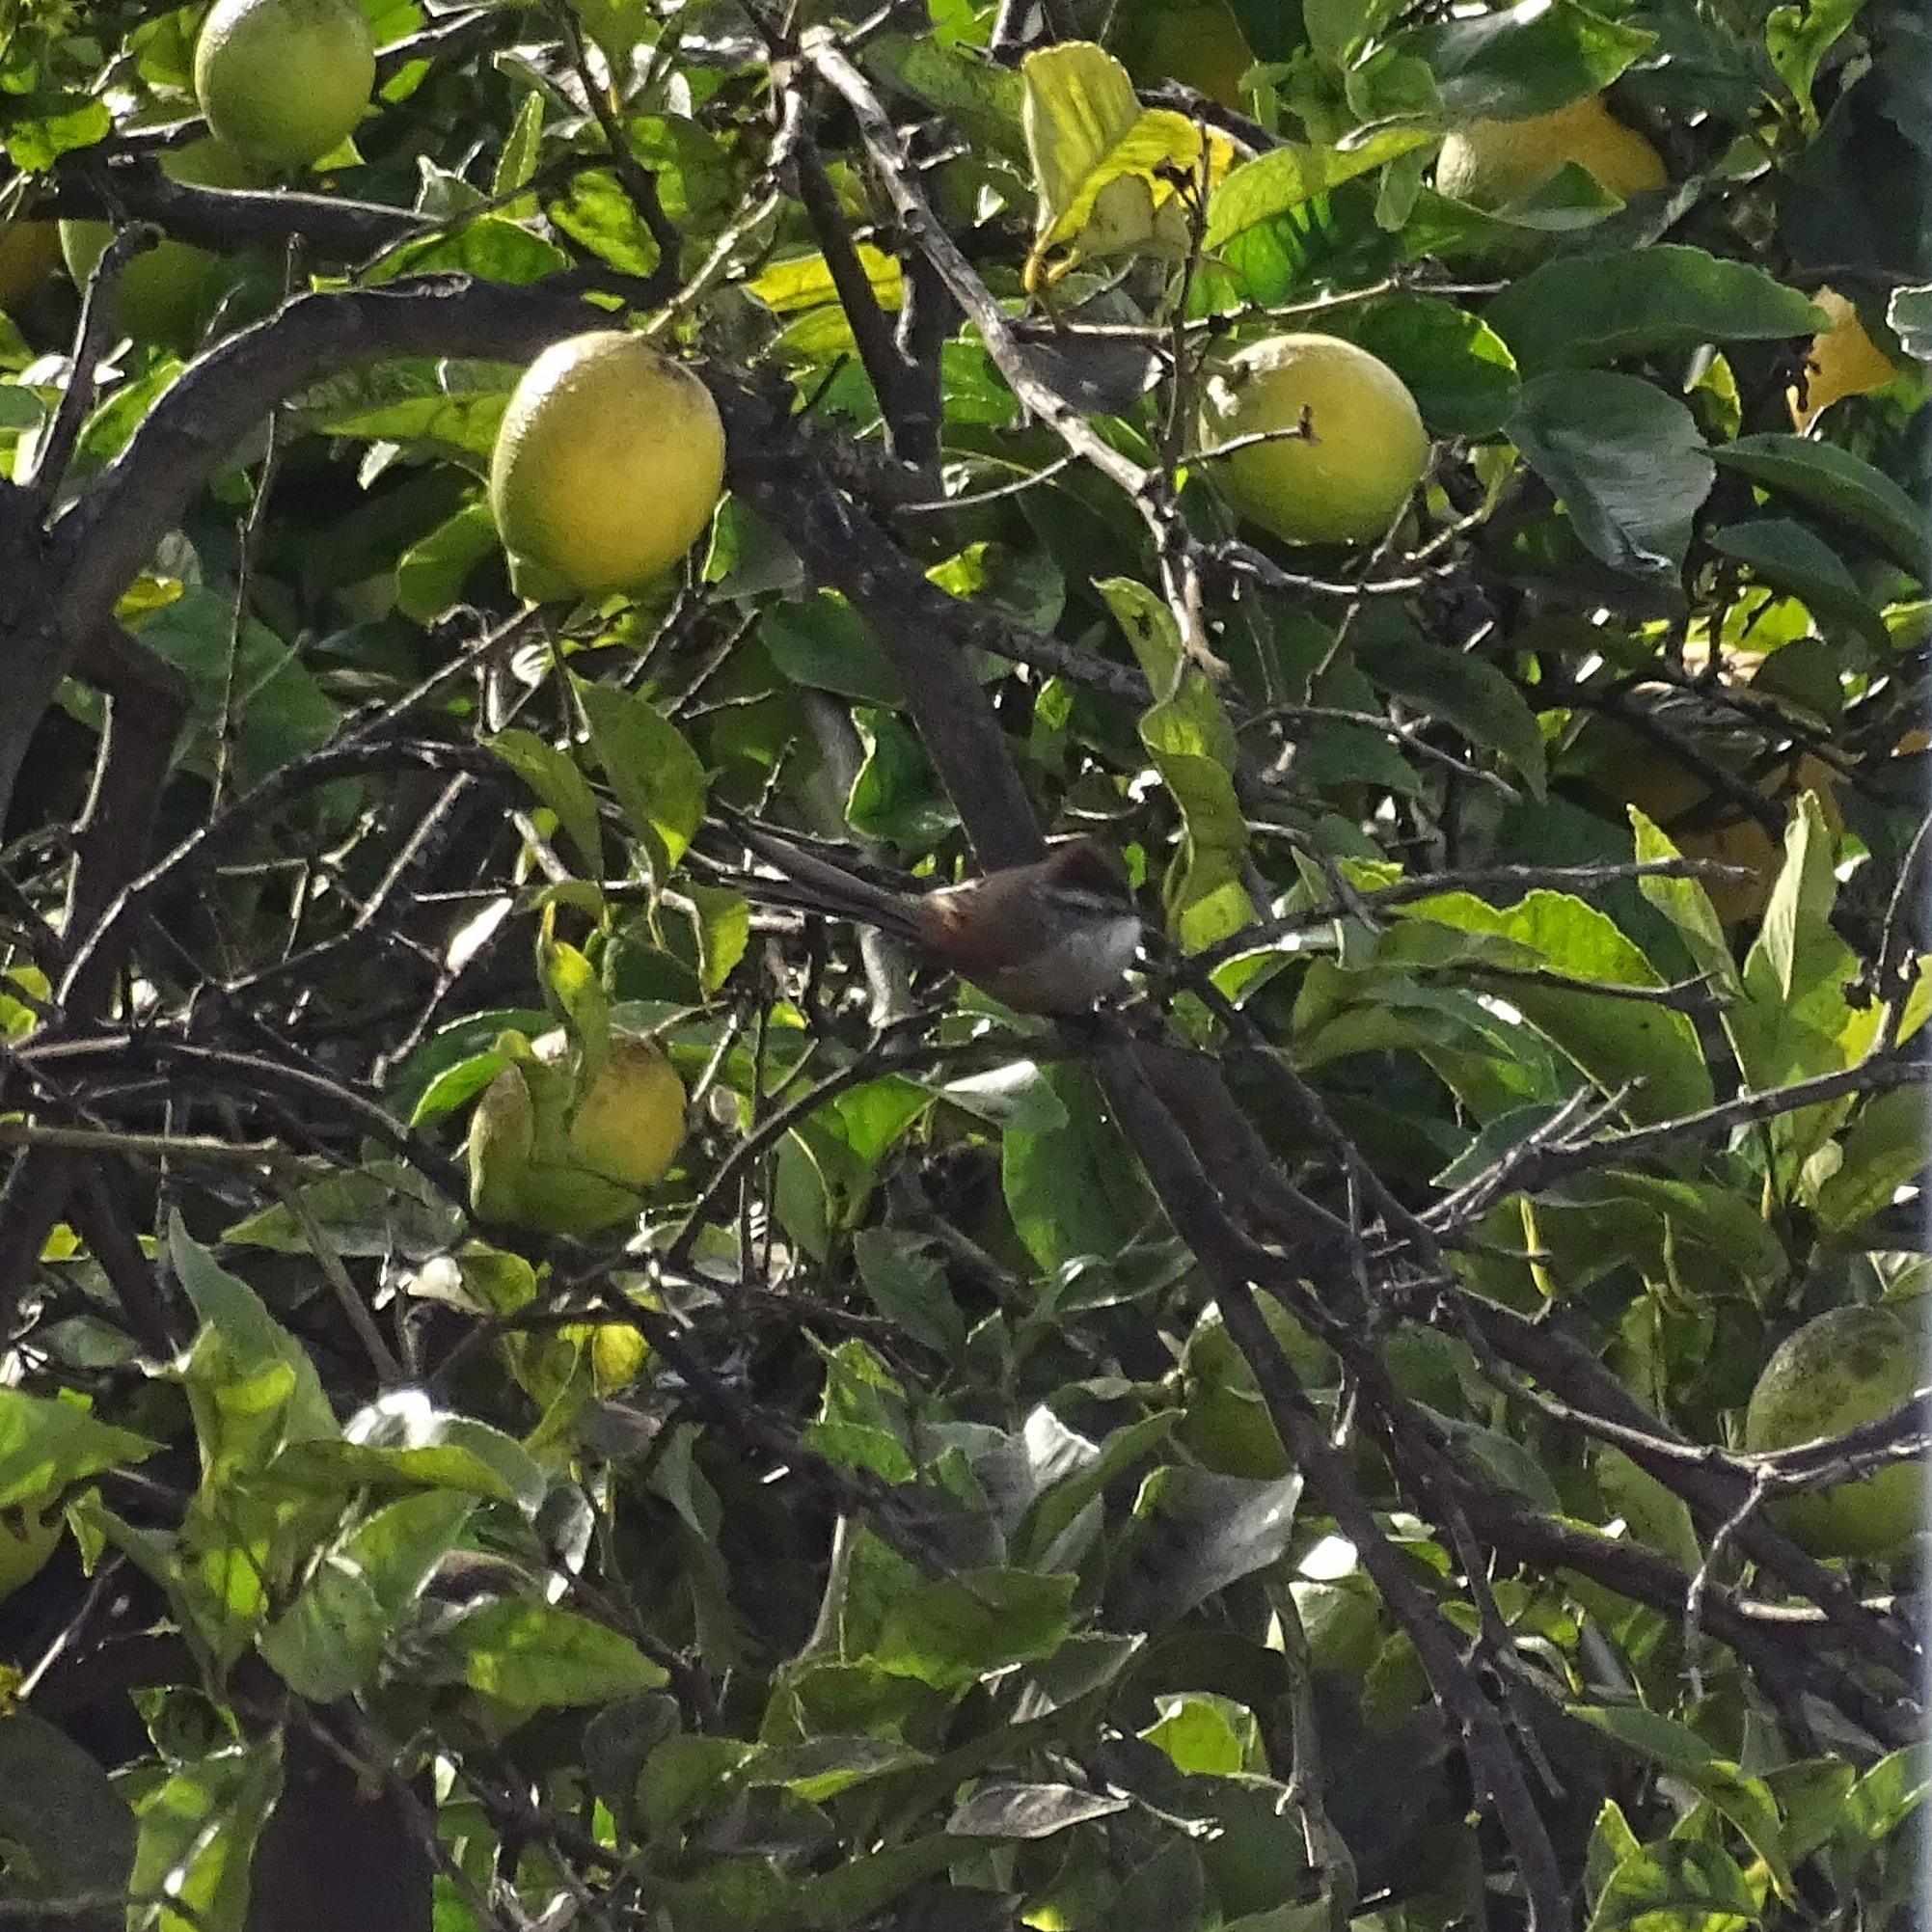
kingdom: Animalia
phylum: Chordata
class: Aves
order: Passeriformes
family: Furnariidae
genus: Leptasthenura
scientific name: Leptasthenura aegithaloides
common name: Plain-mantled tit-spinetail
